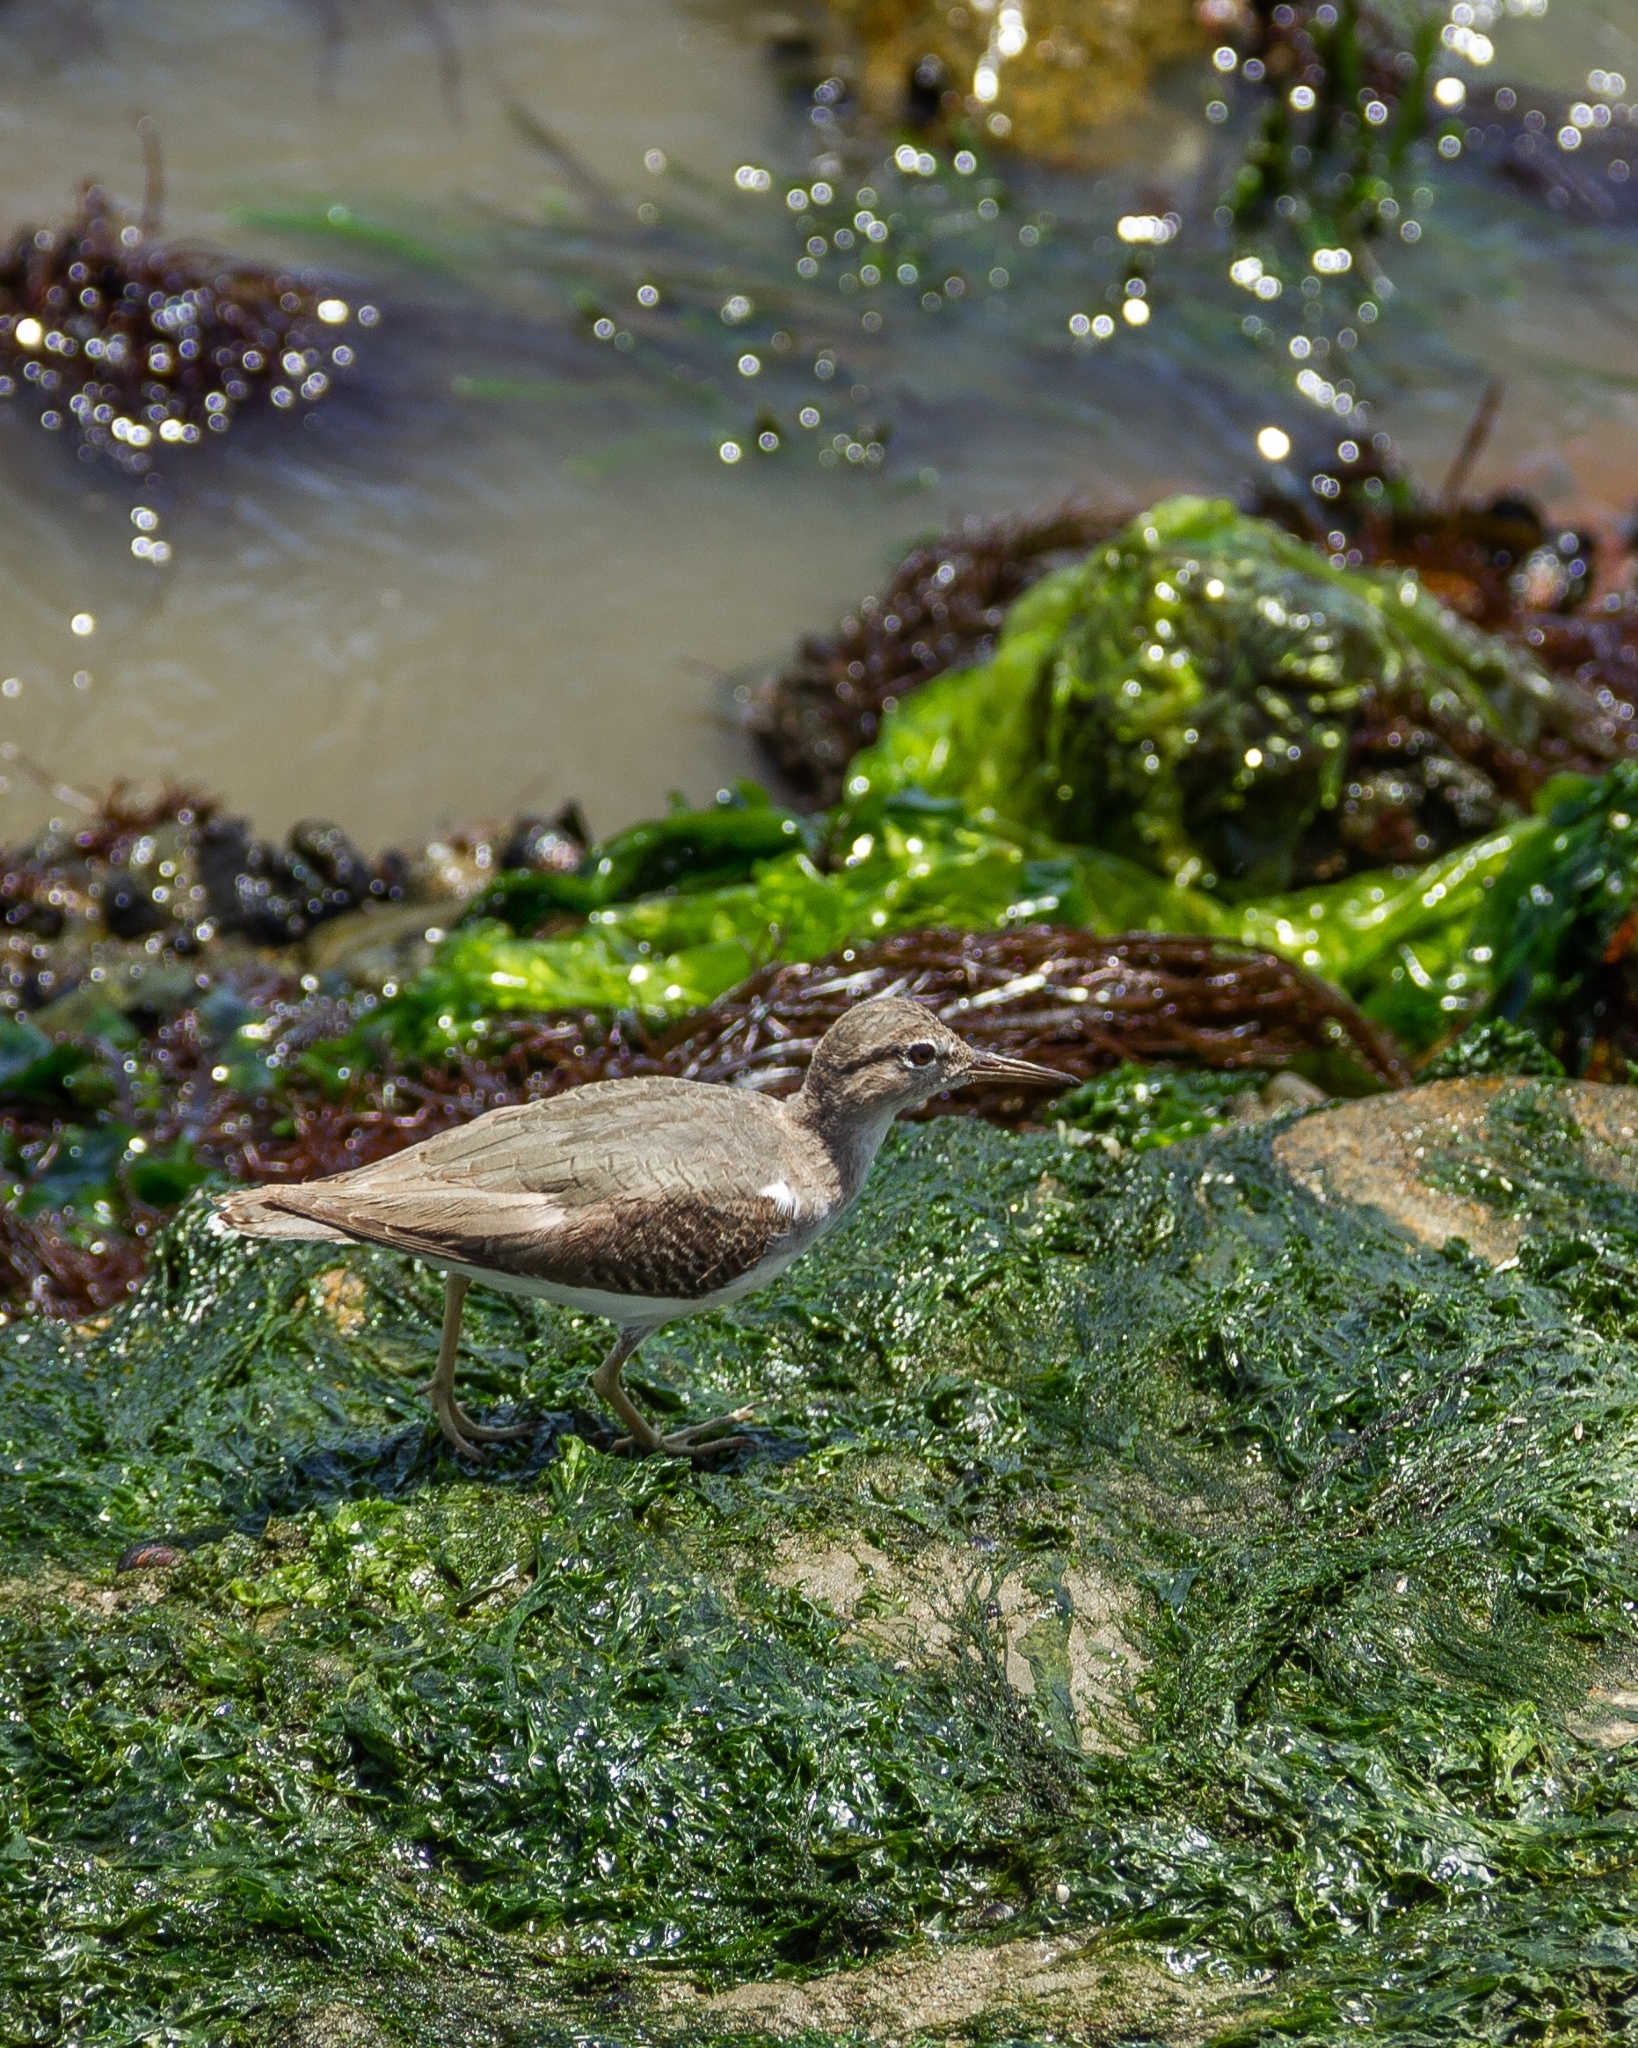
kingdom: Animalia
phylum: Chordata
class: Aves
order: Charadriiformes
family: Scolopacidae
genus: Actitis
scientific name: Actitis macularius
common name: Spotted sandpiper
